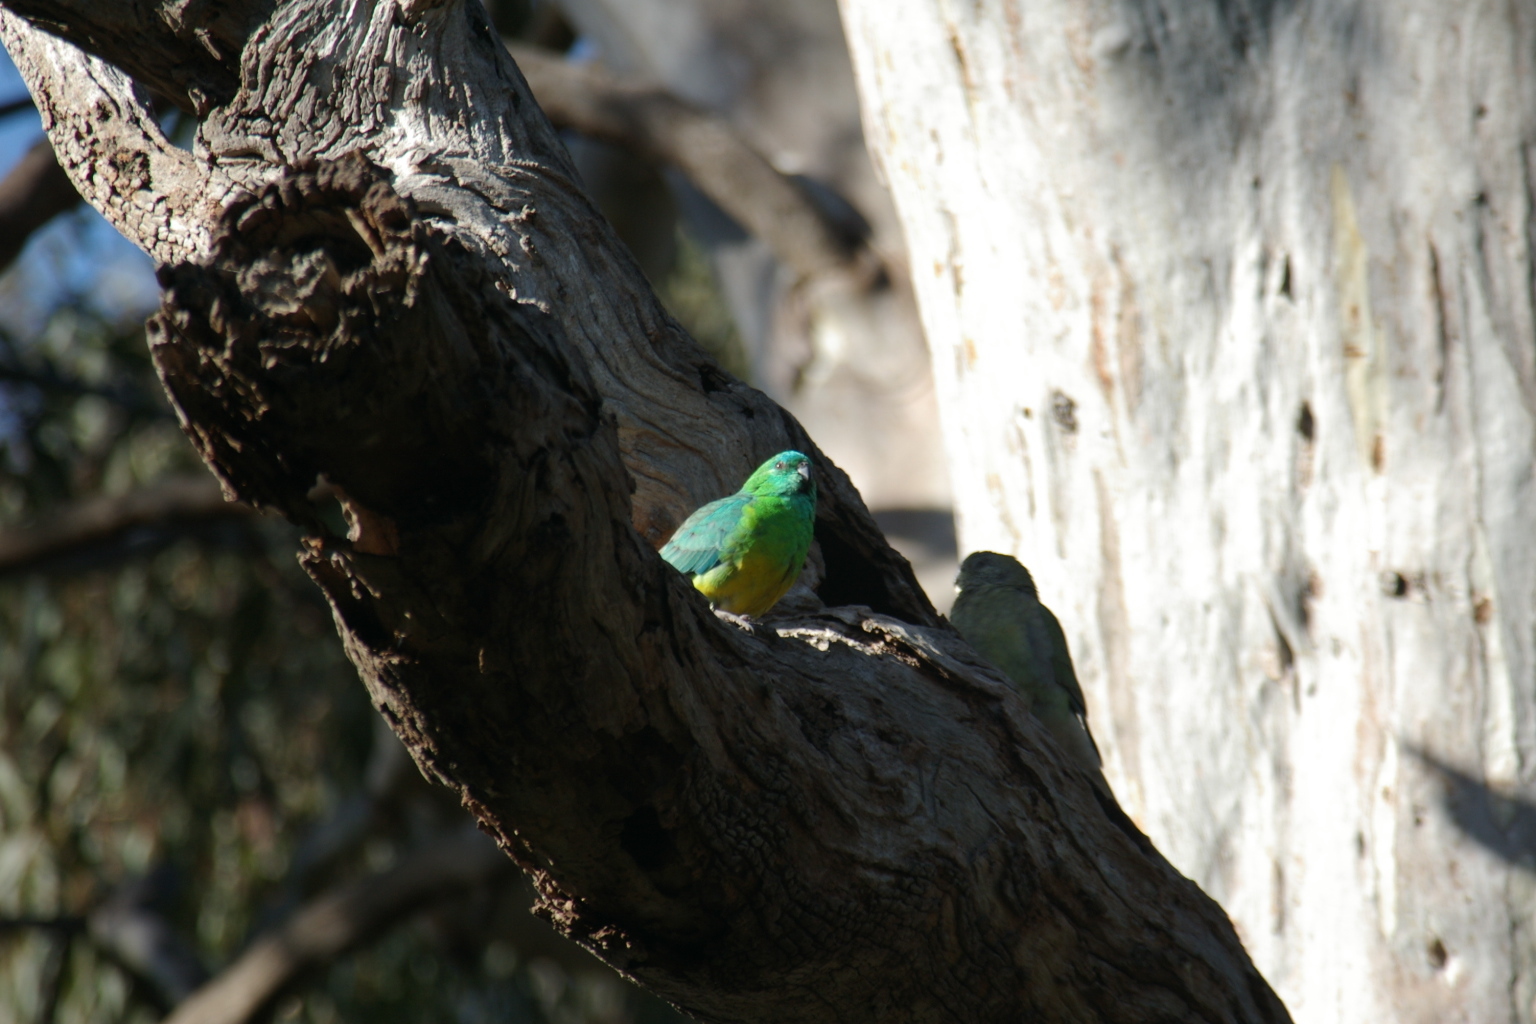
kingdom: Animalia
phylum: Chordata
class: Aves
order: Psittaciformes
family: Psittacidae
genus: Psephotus
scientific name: Psephotus haematonotus
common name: Red-rumped parrot
